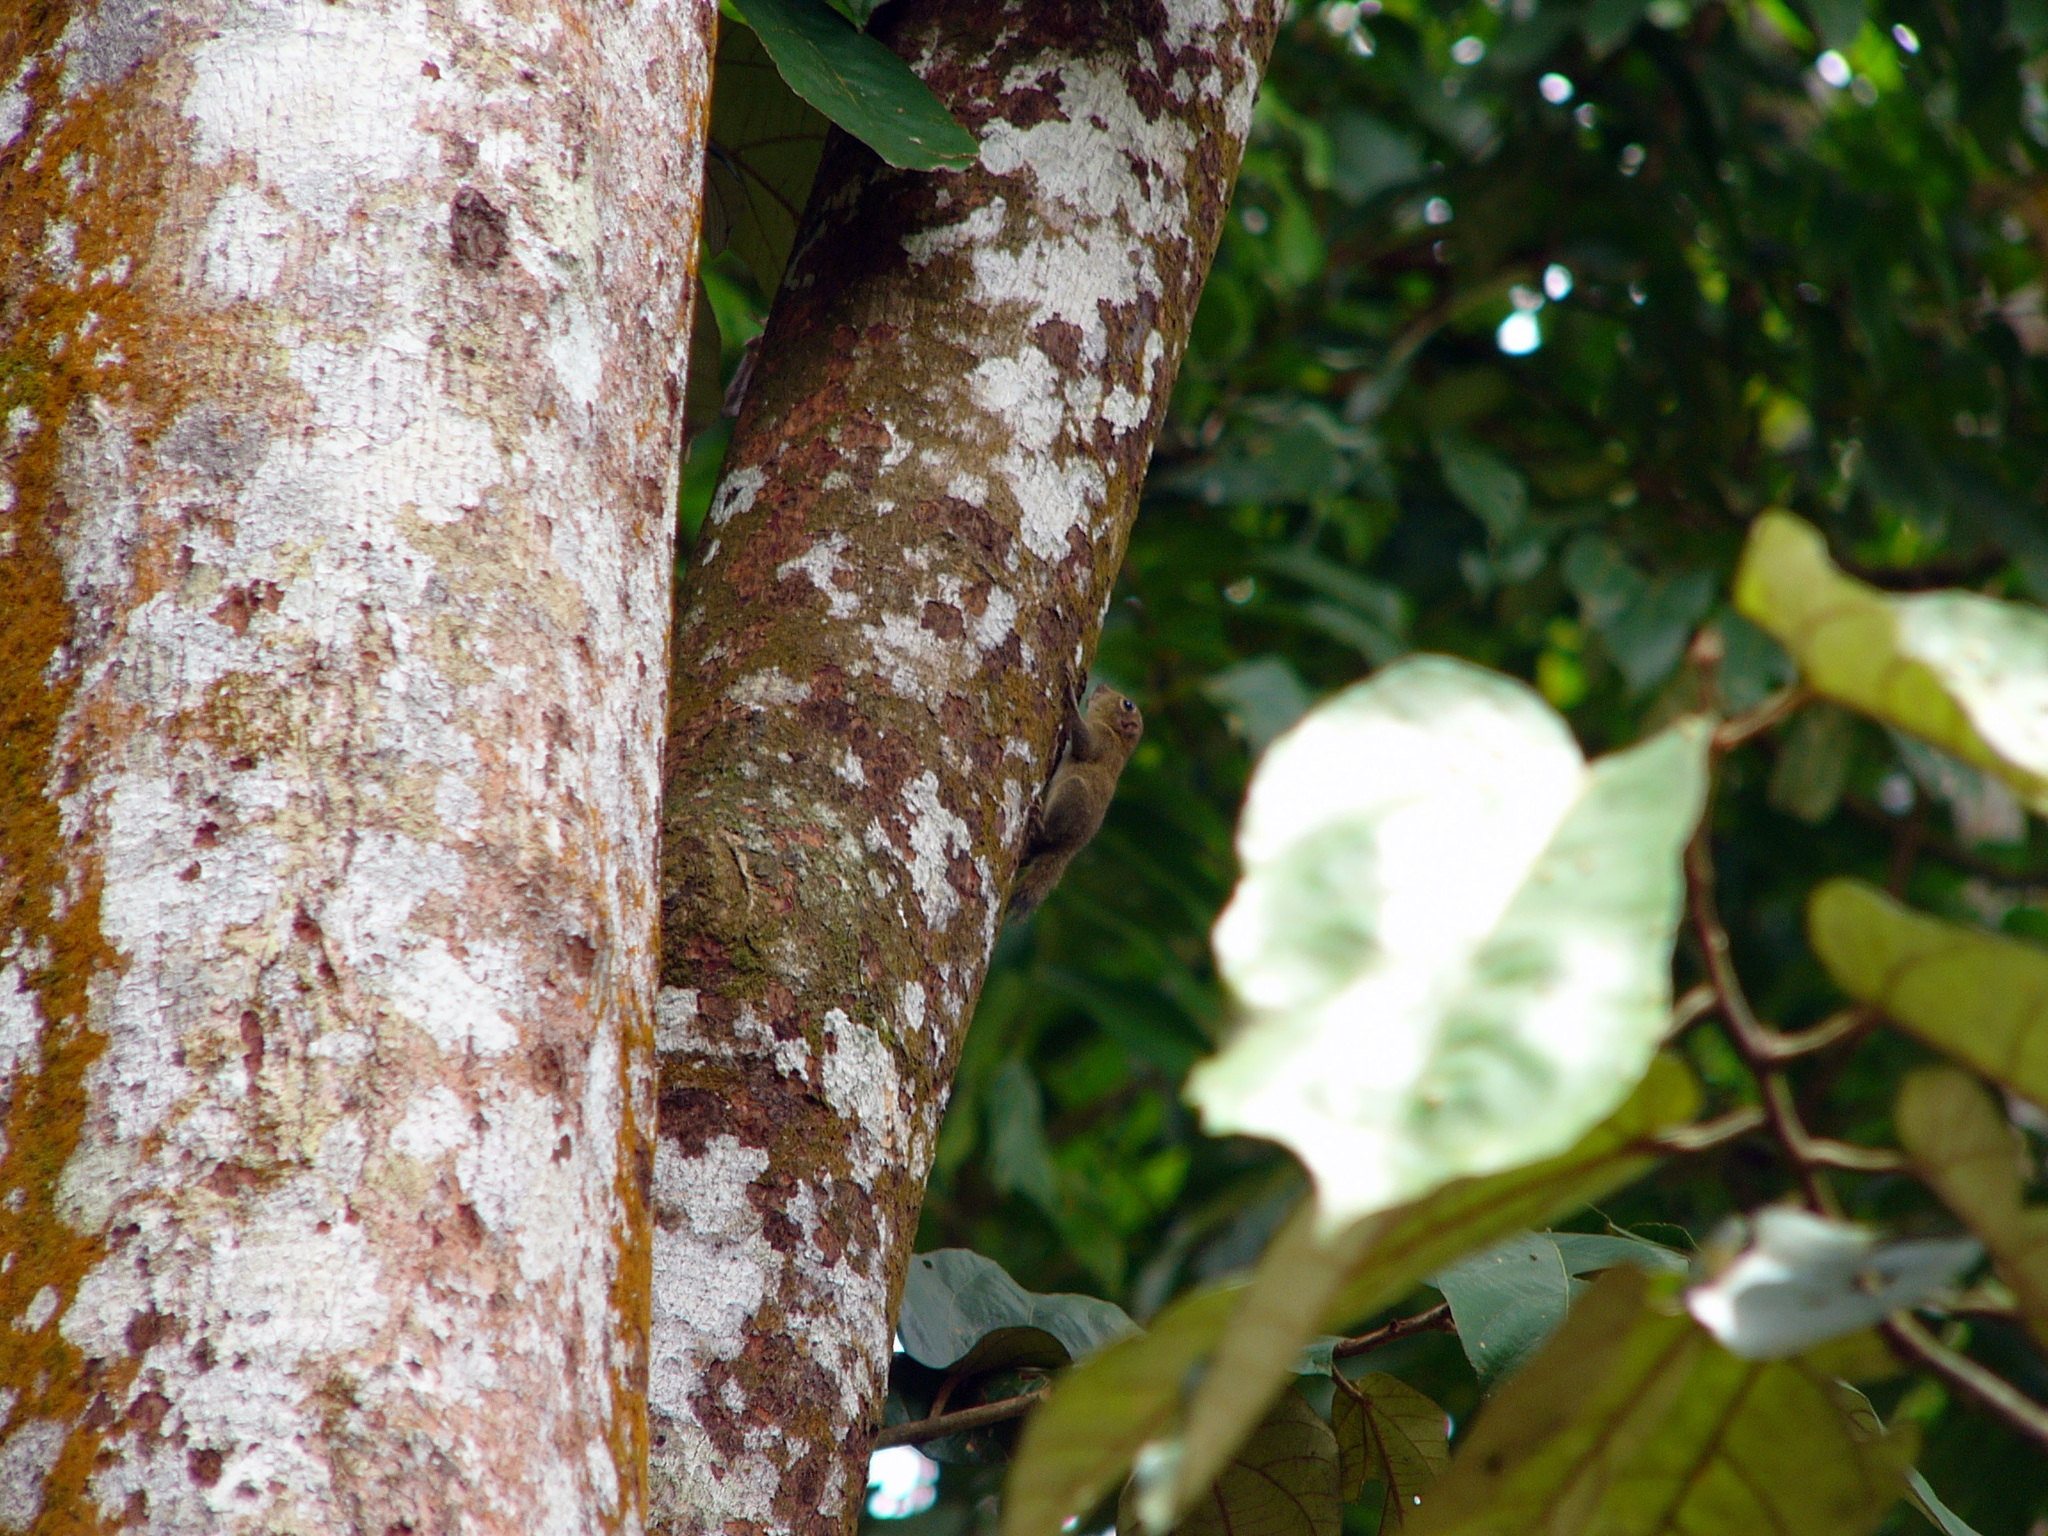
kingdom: Animalia
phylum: Chordata
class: Mammalia
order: Rodentia
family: Sciuridae
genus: Exilisciurus
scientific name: Exilisciurus exilis
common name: Least pygmy squirrel
